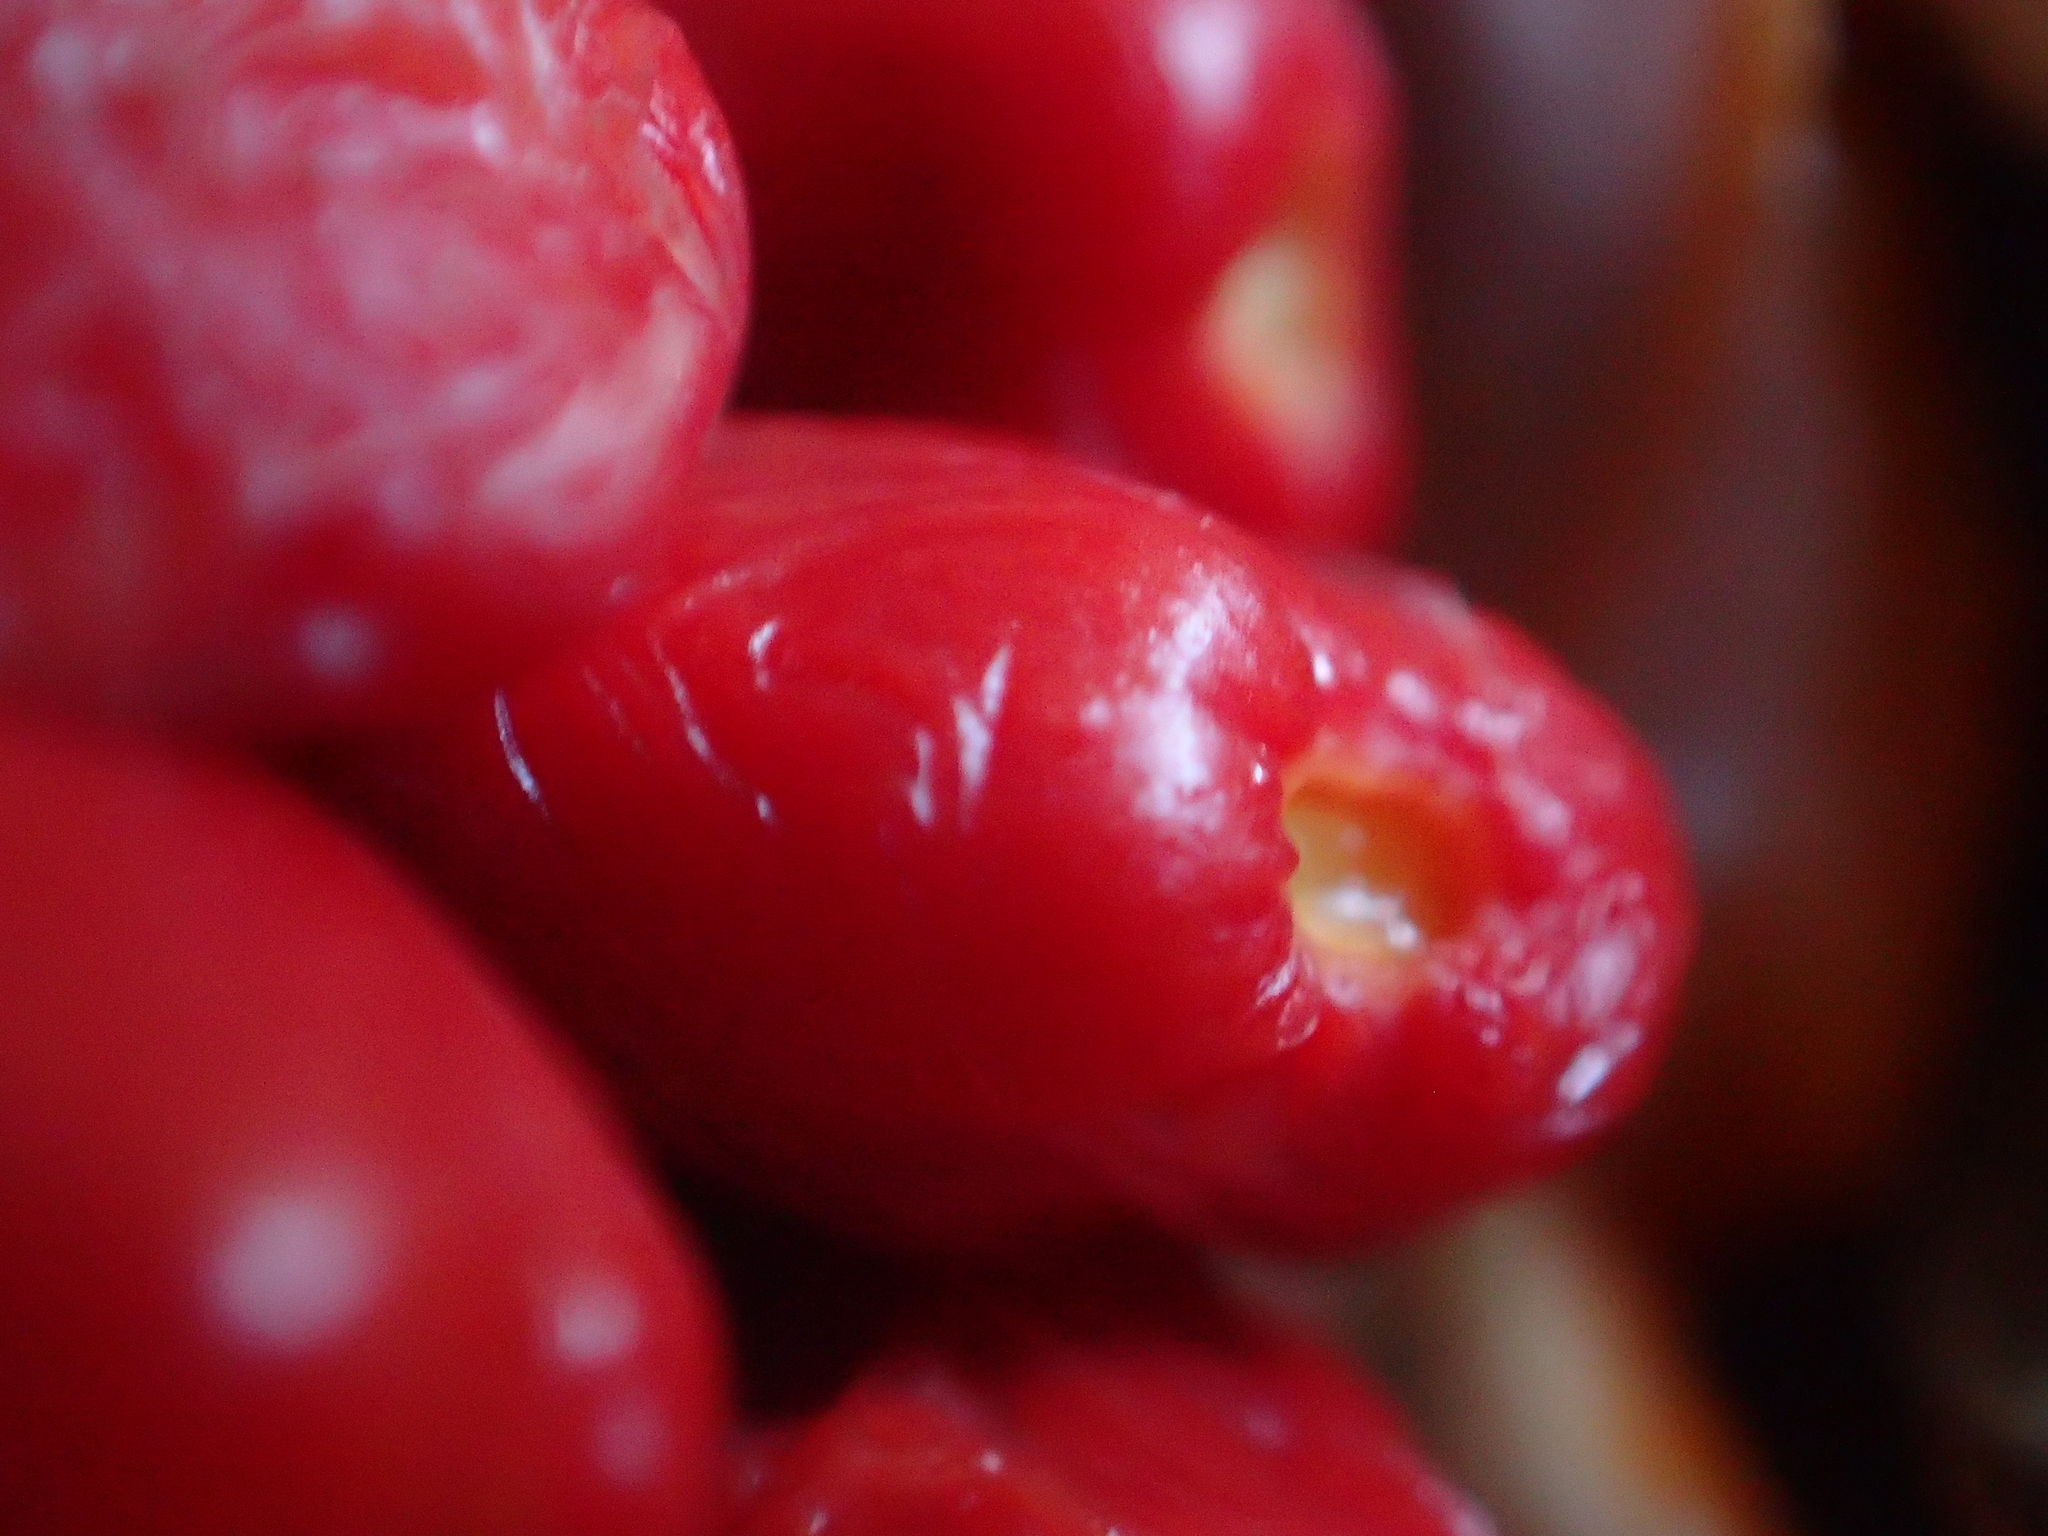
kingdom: Plantae
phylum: Tracheophyta
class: Magnoliopsida
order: Malpighiales
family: Passifloraceae
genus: Passiflora
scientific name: Passiflora tetrandra
